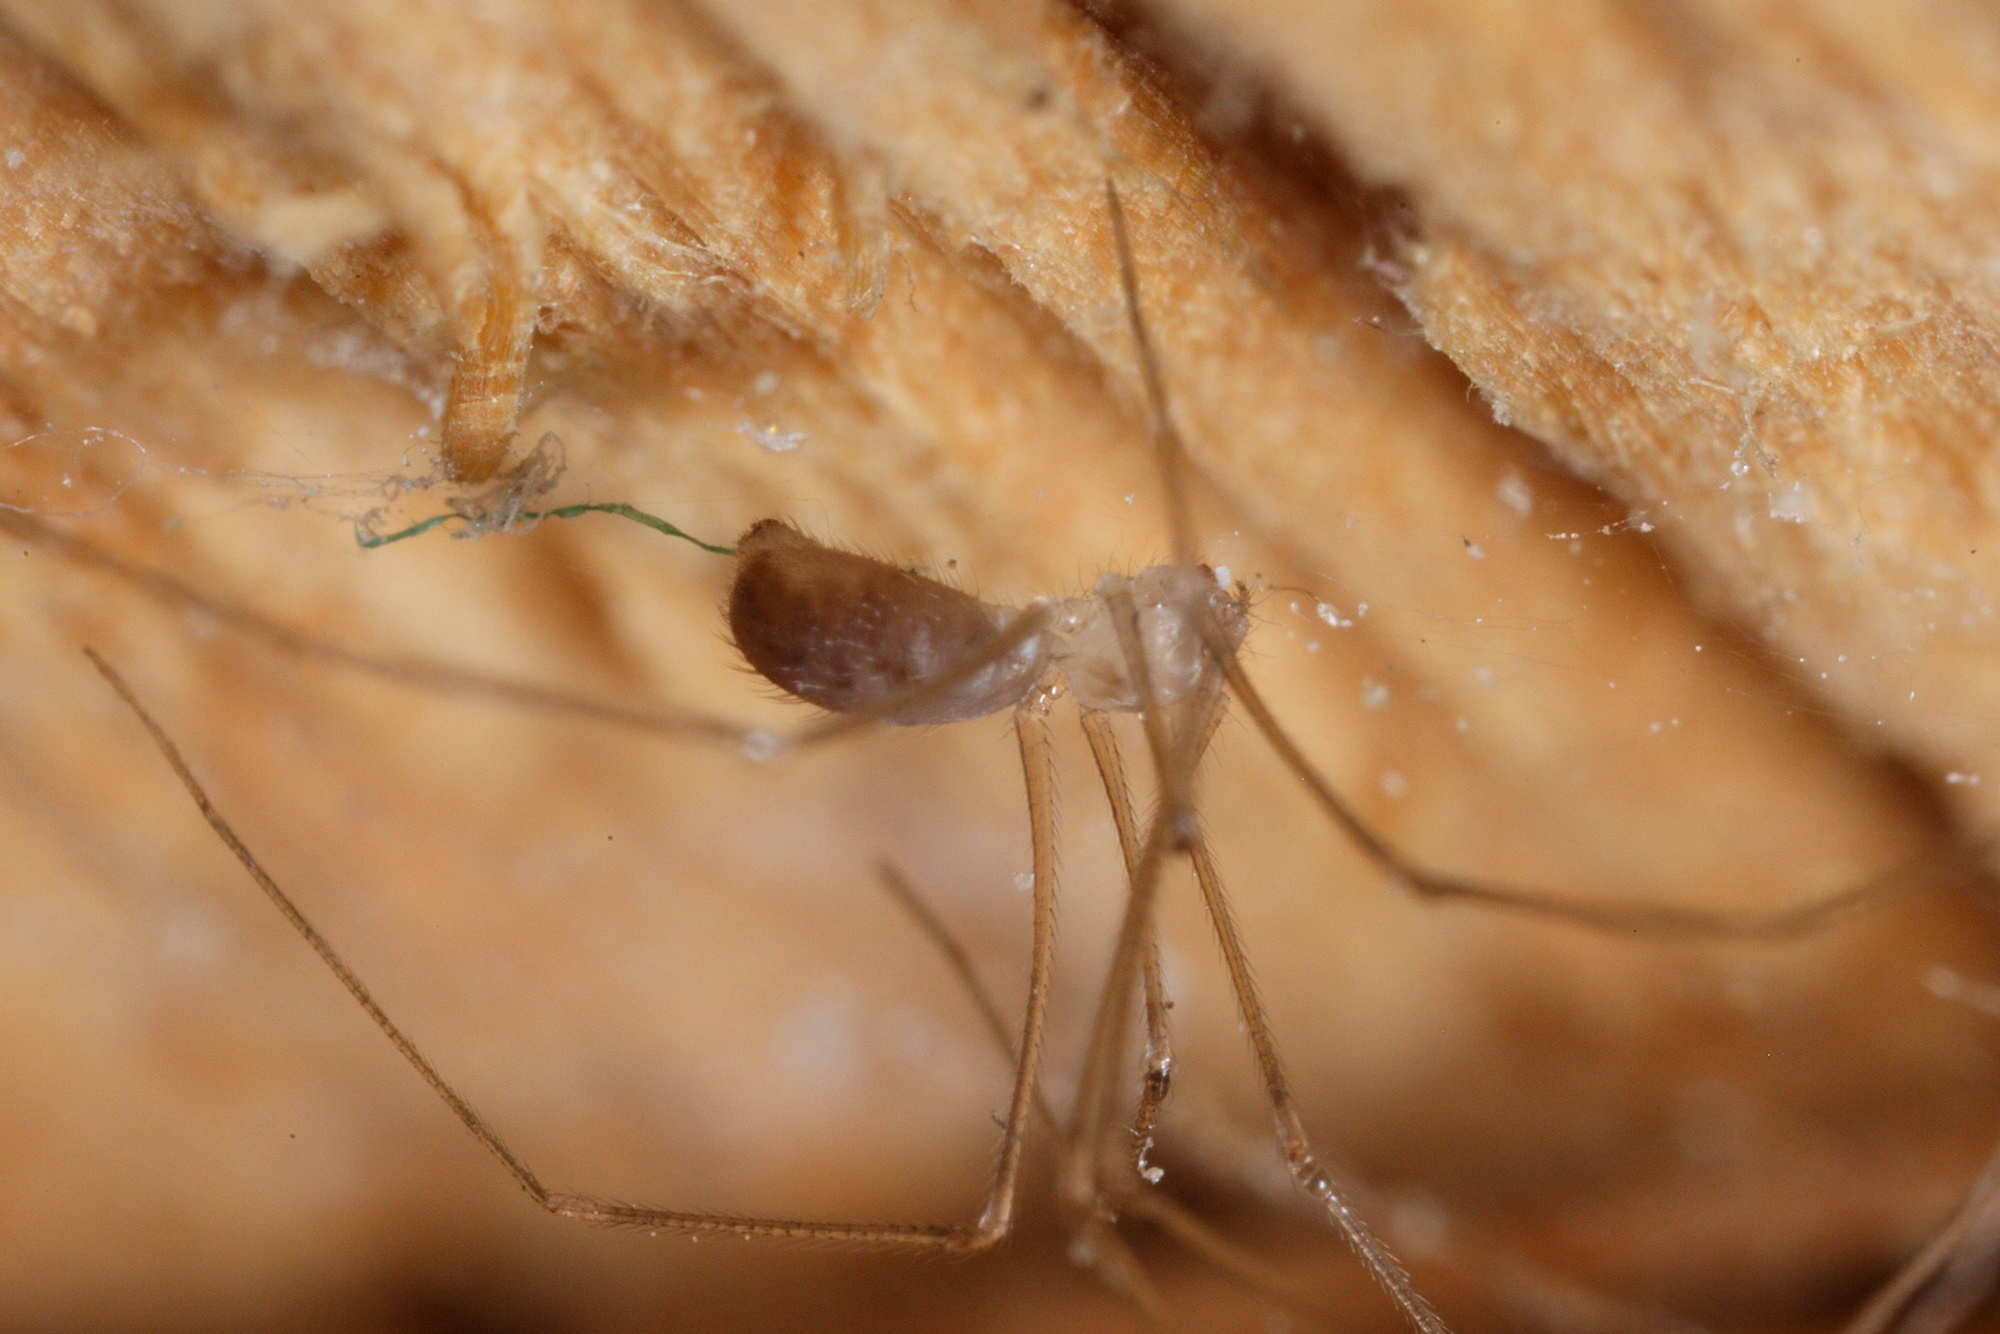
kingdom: Animalia
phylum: Arthropoda
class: Arachnida
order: Araneae
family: Pholcidae
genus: Pholcus
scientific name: Pholcus phalangioides
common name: Longbodied cellar spider
